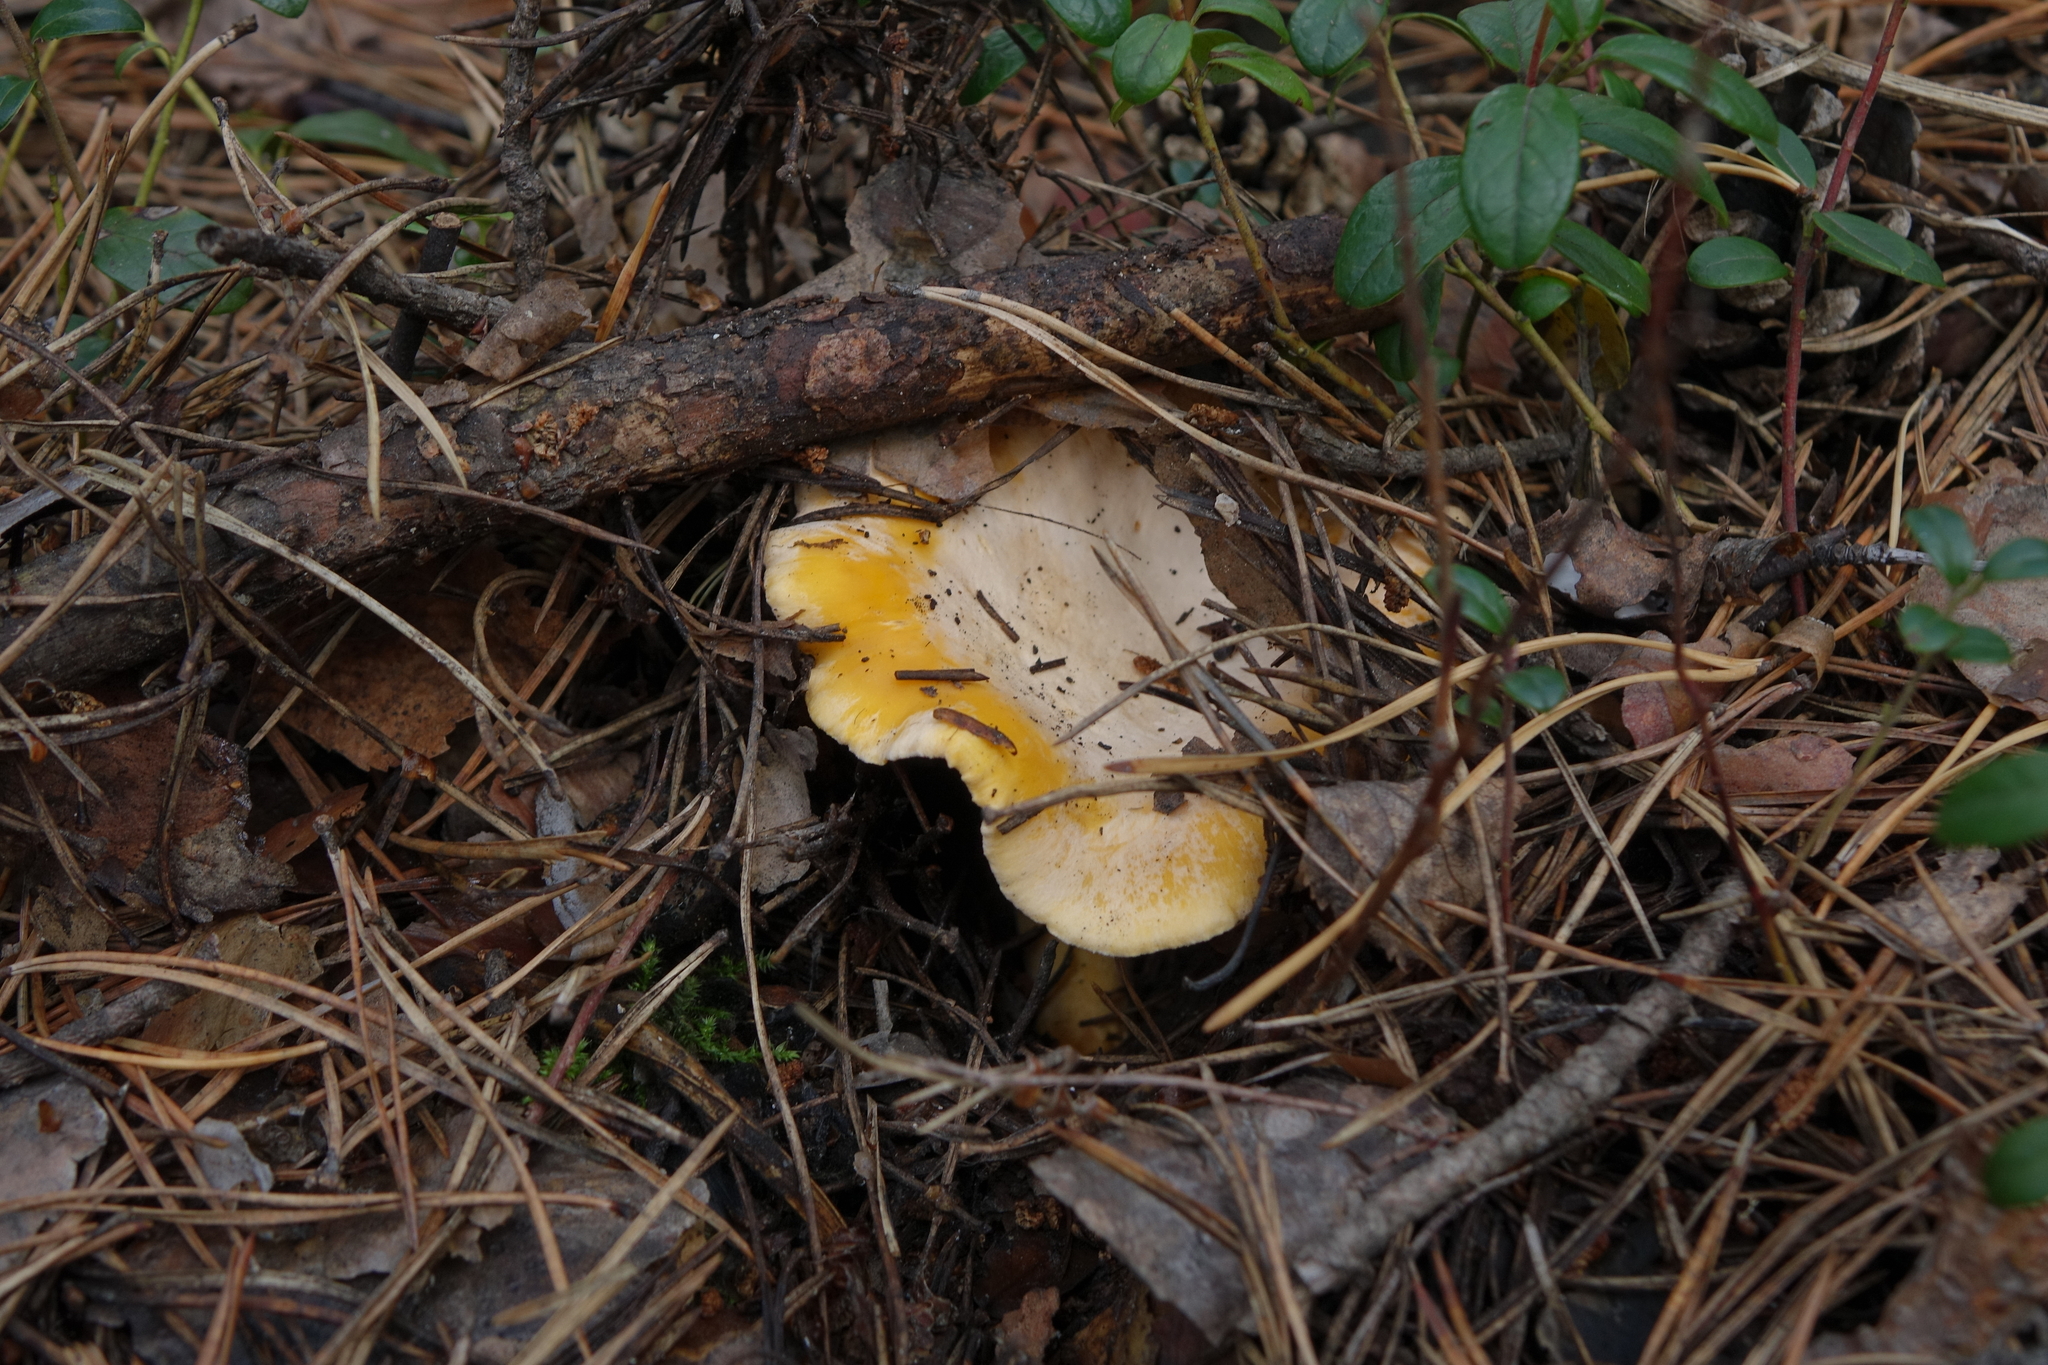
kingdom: Fungi
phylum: Basidiomycota
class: Agaricomycetes
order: Cantharellales
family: Hydnaceae
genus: Cantharellus
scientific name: Cantharellus cibarius
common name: Chanterelle
